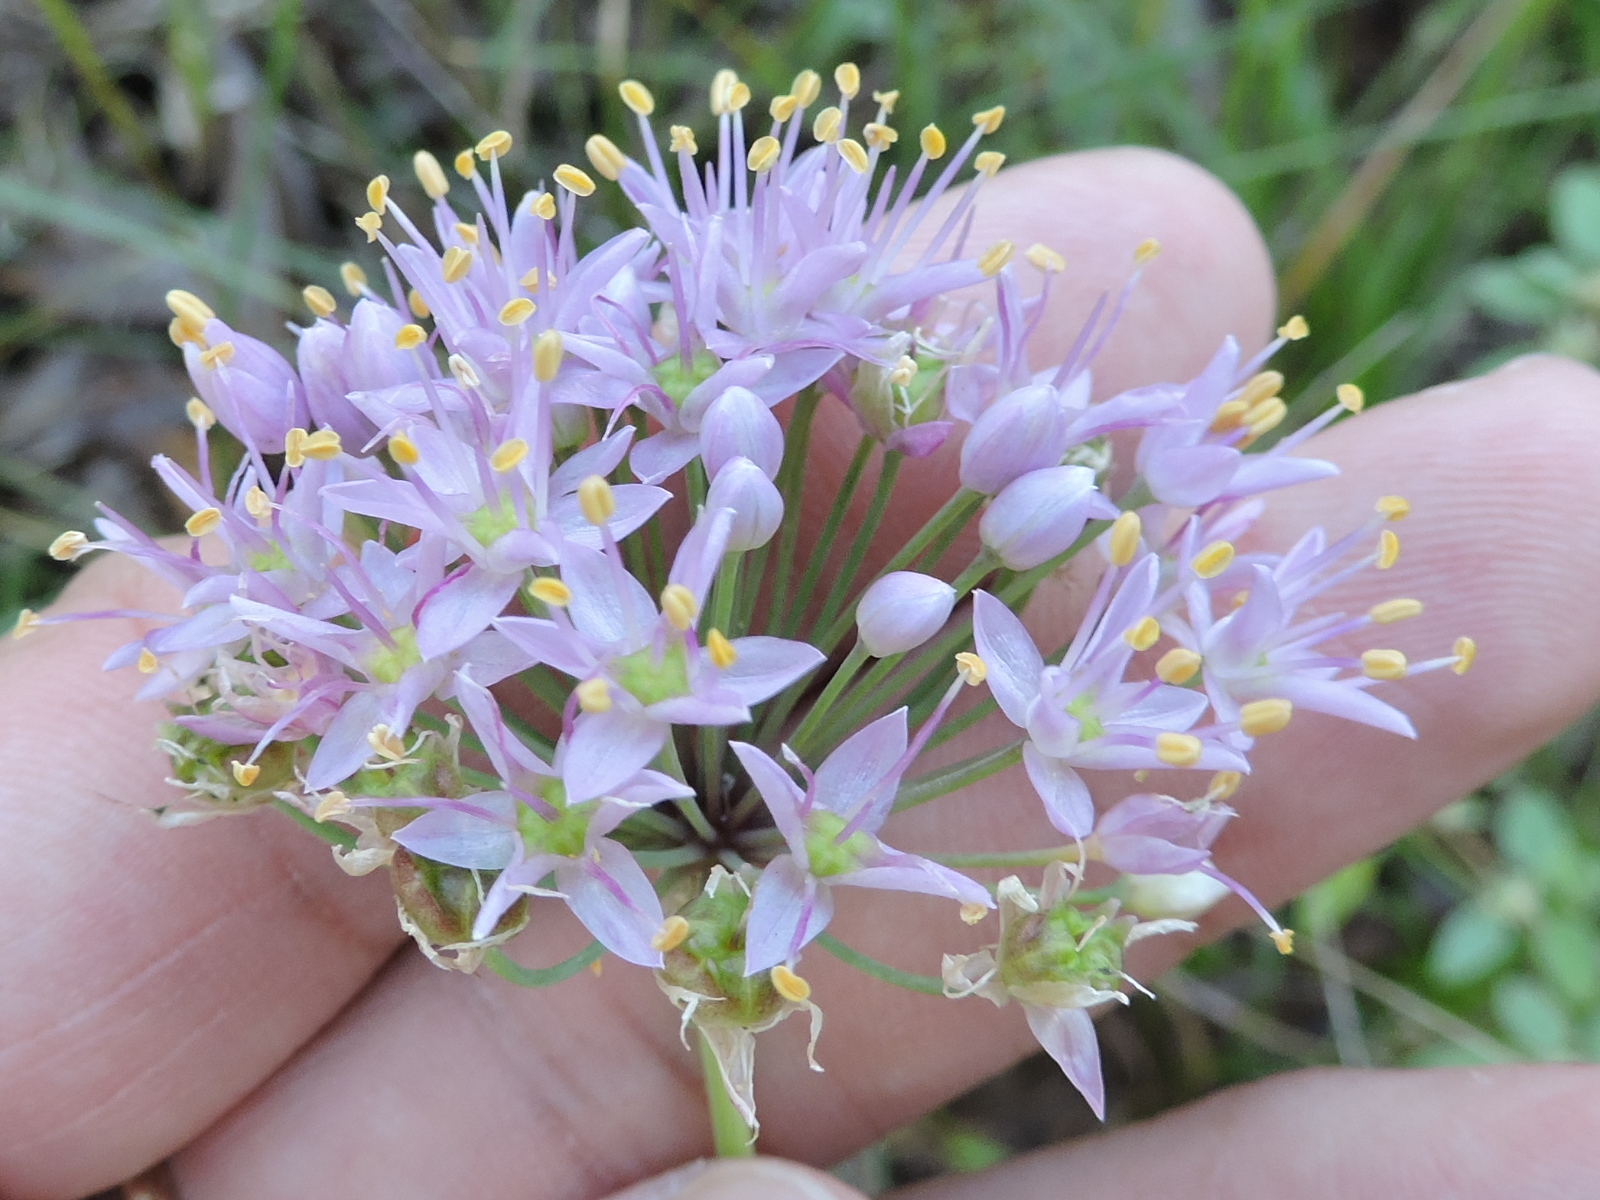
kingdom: Plantae
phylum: Tracheophyta
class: Liliopsida
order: Asparagales
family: Amaryllidaceae
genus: Allium
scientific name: Allium stellatum
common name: Autumn onion
